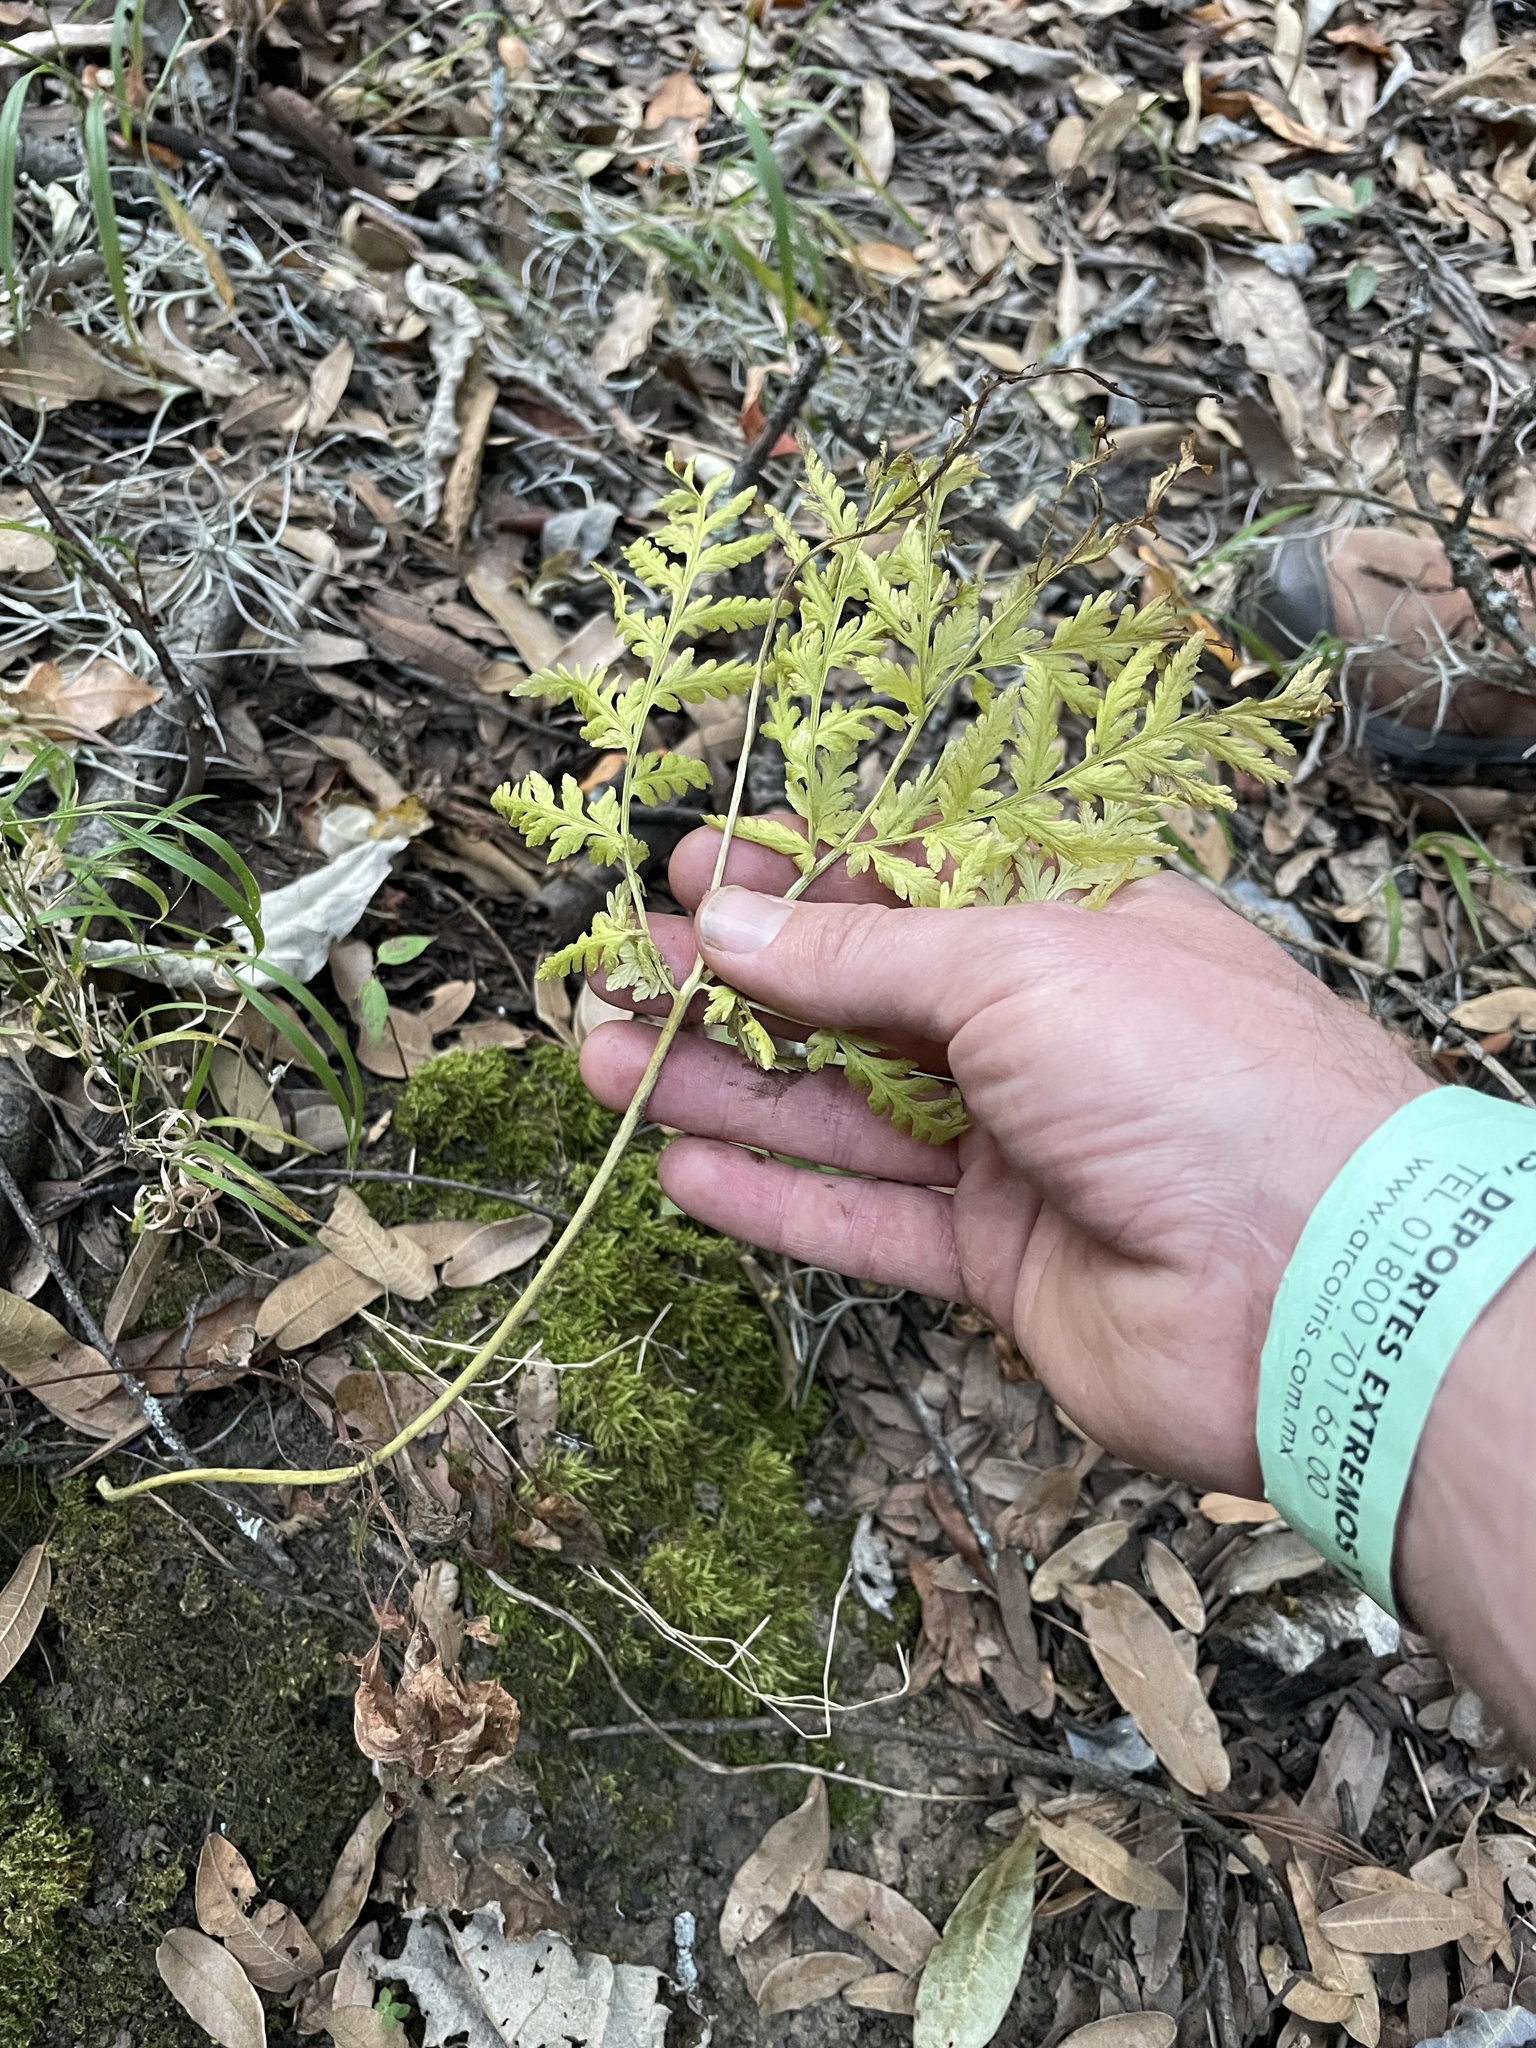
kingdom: Plantae
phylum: Tracheophyta
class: Polypodiopsida
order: Ophioglossales
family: Ophioglossaceae
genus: Botrypus
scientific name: Botrypus virginianus
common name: Common grapefern
